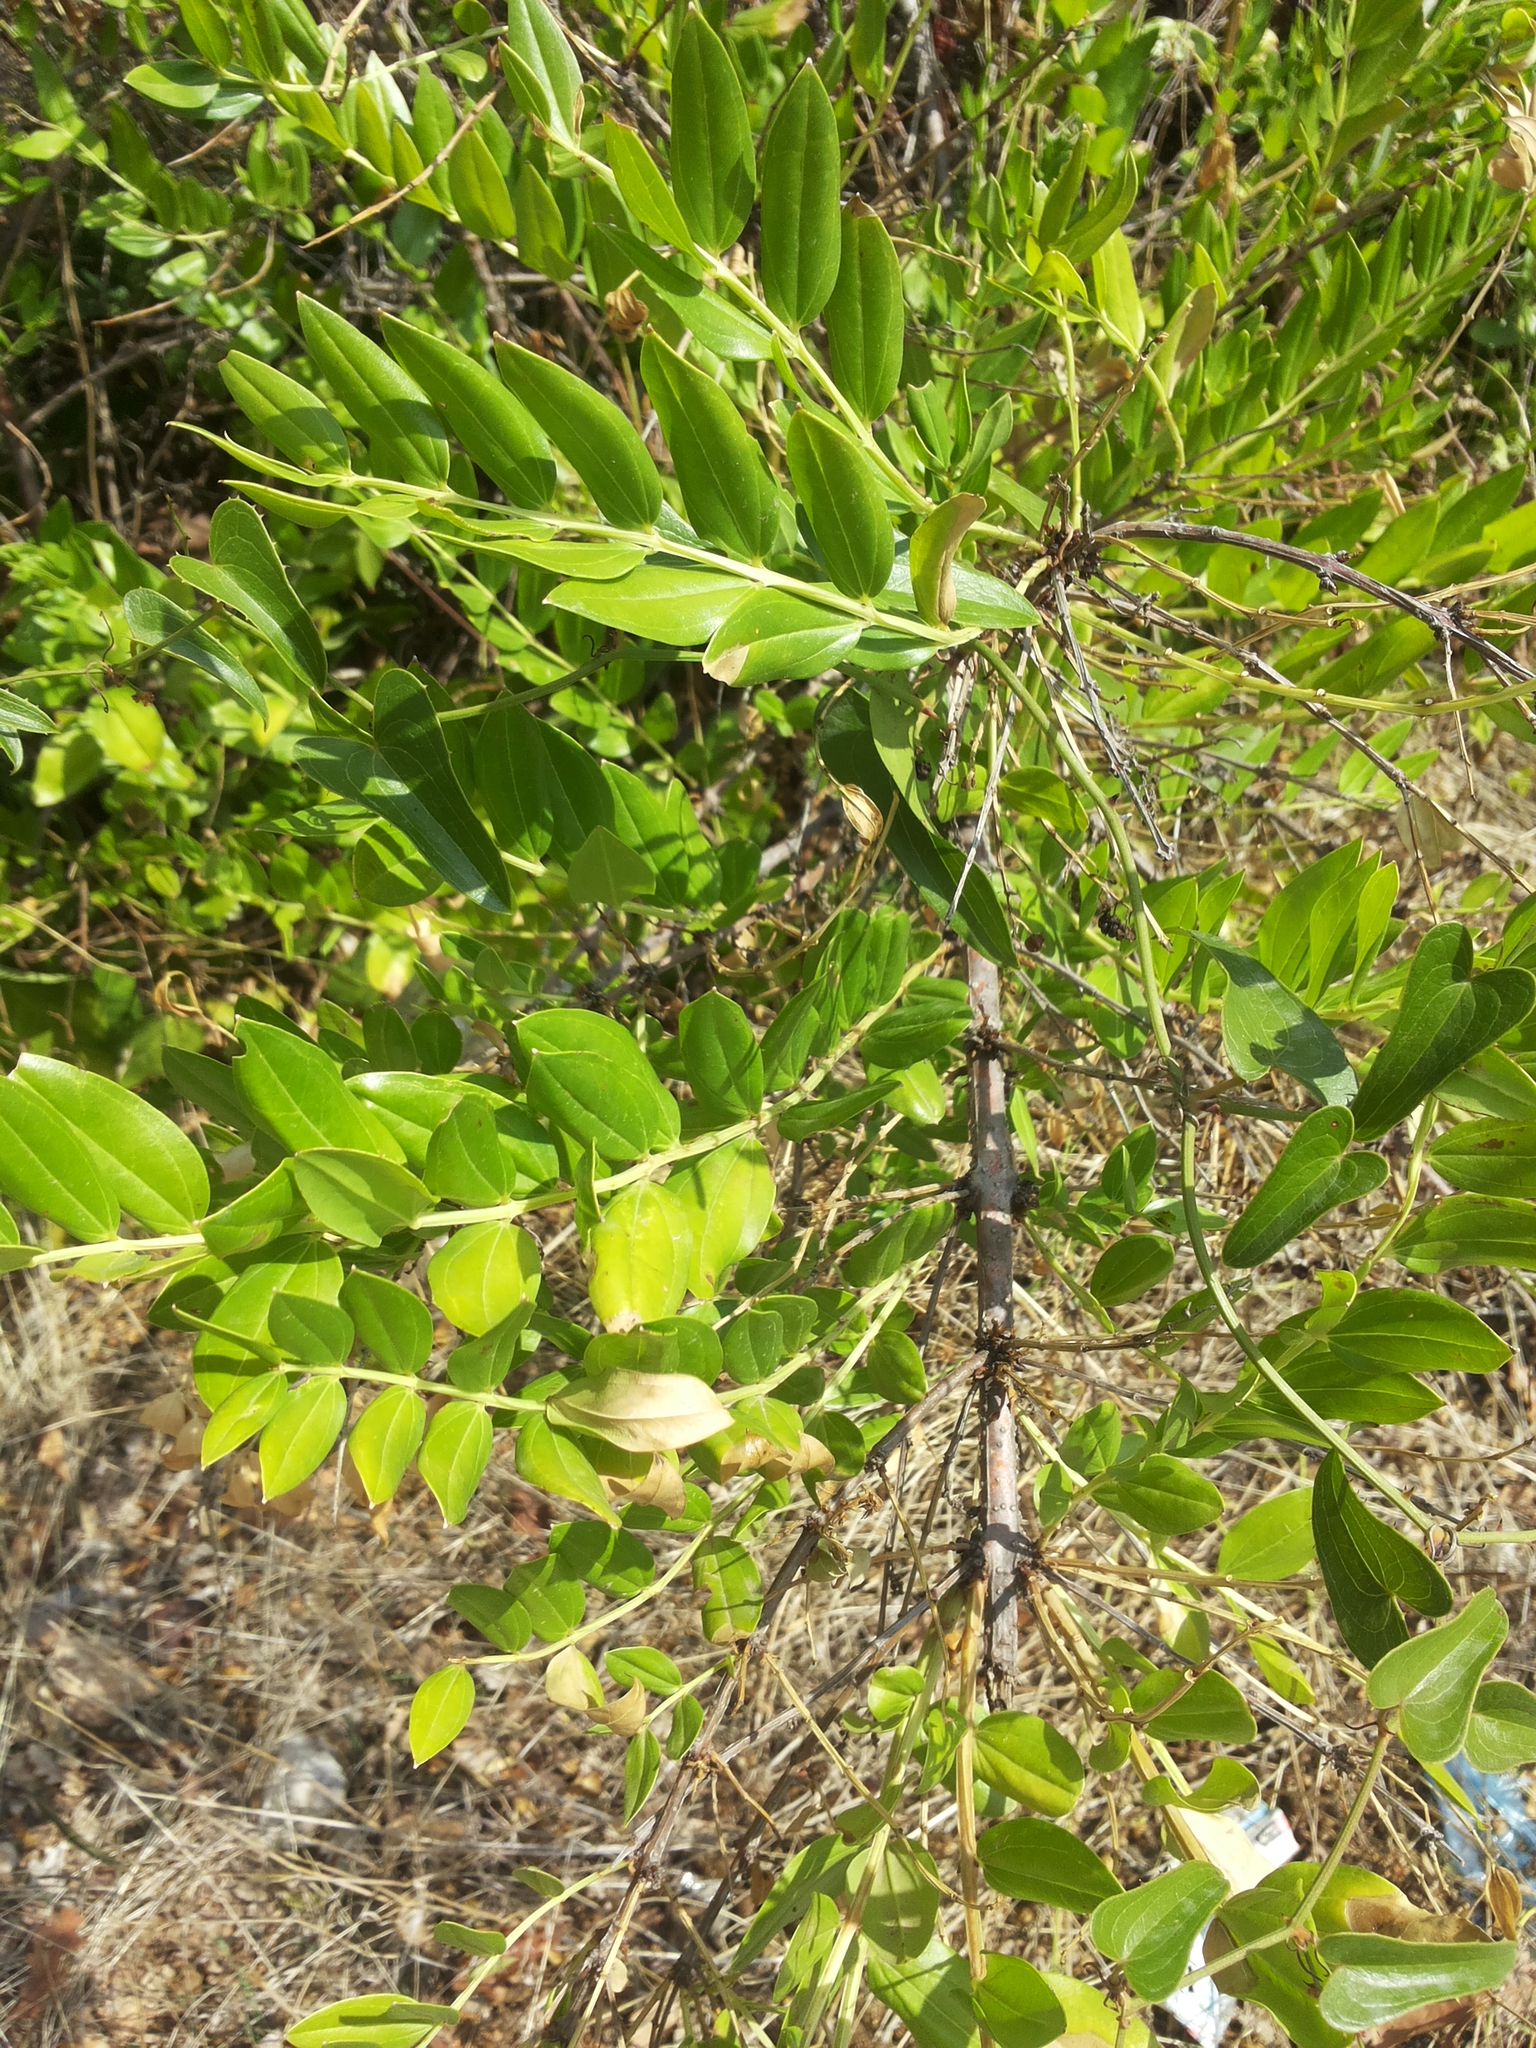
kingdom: Plantae
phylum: Tracheophyta
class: Magnoliopsida
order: Cucurbitales
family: Coriariaceae
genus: Coriaria
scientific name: Coriaria myrtifolia
